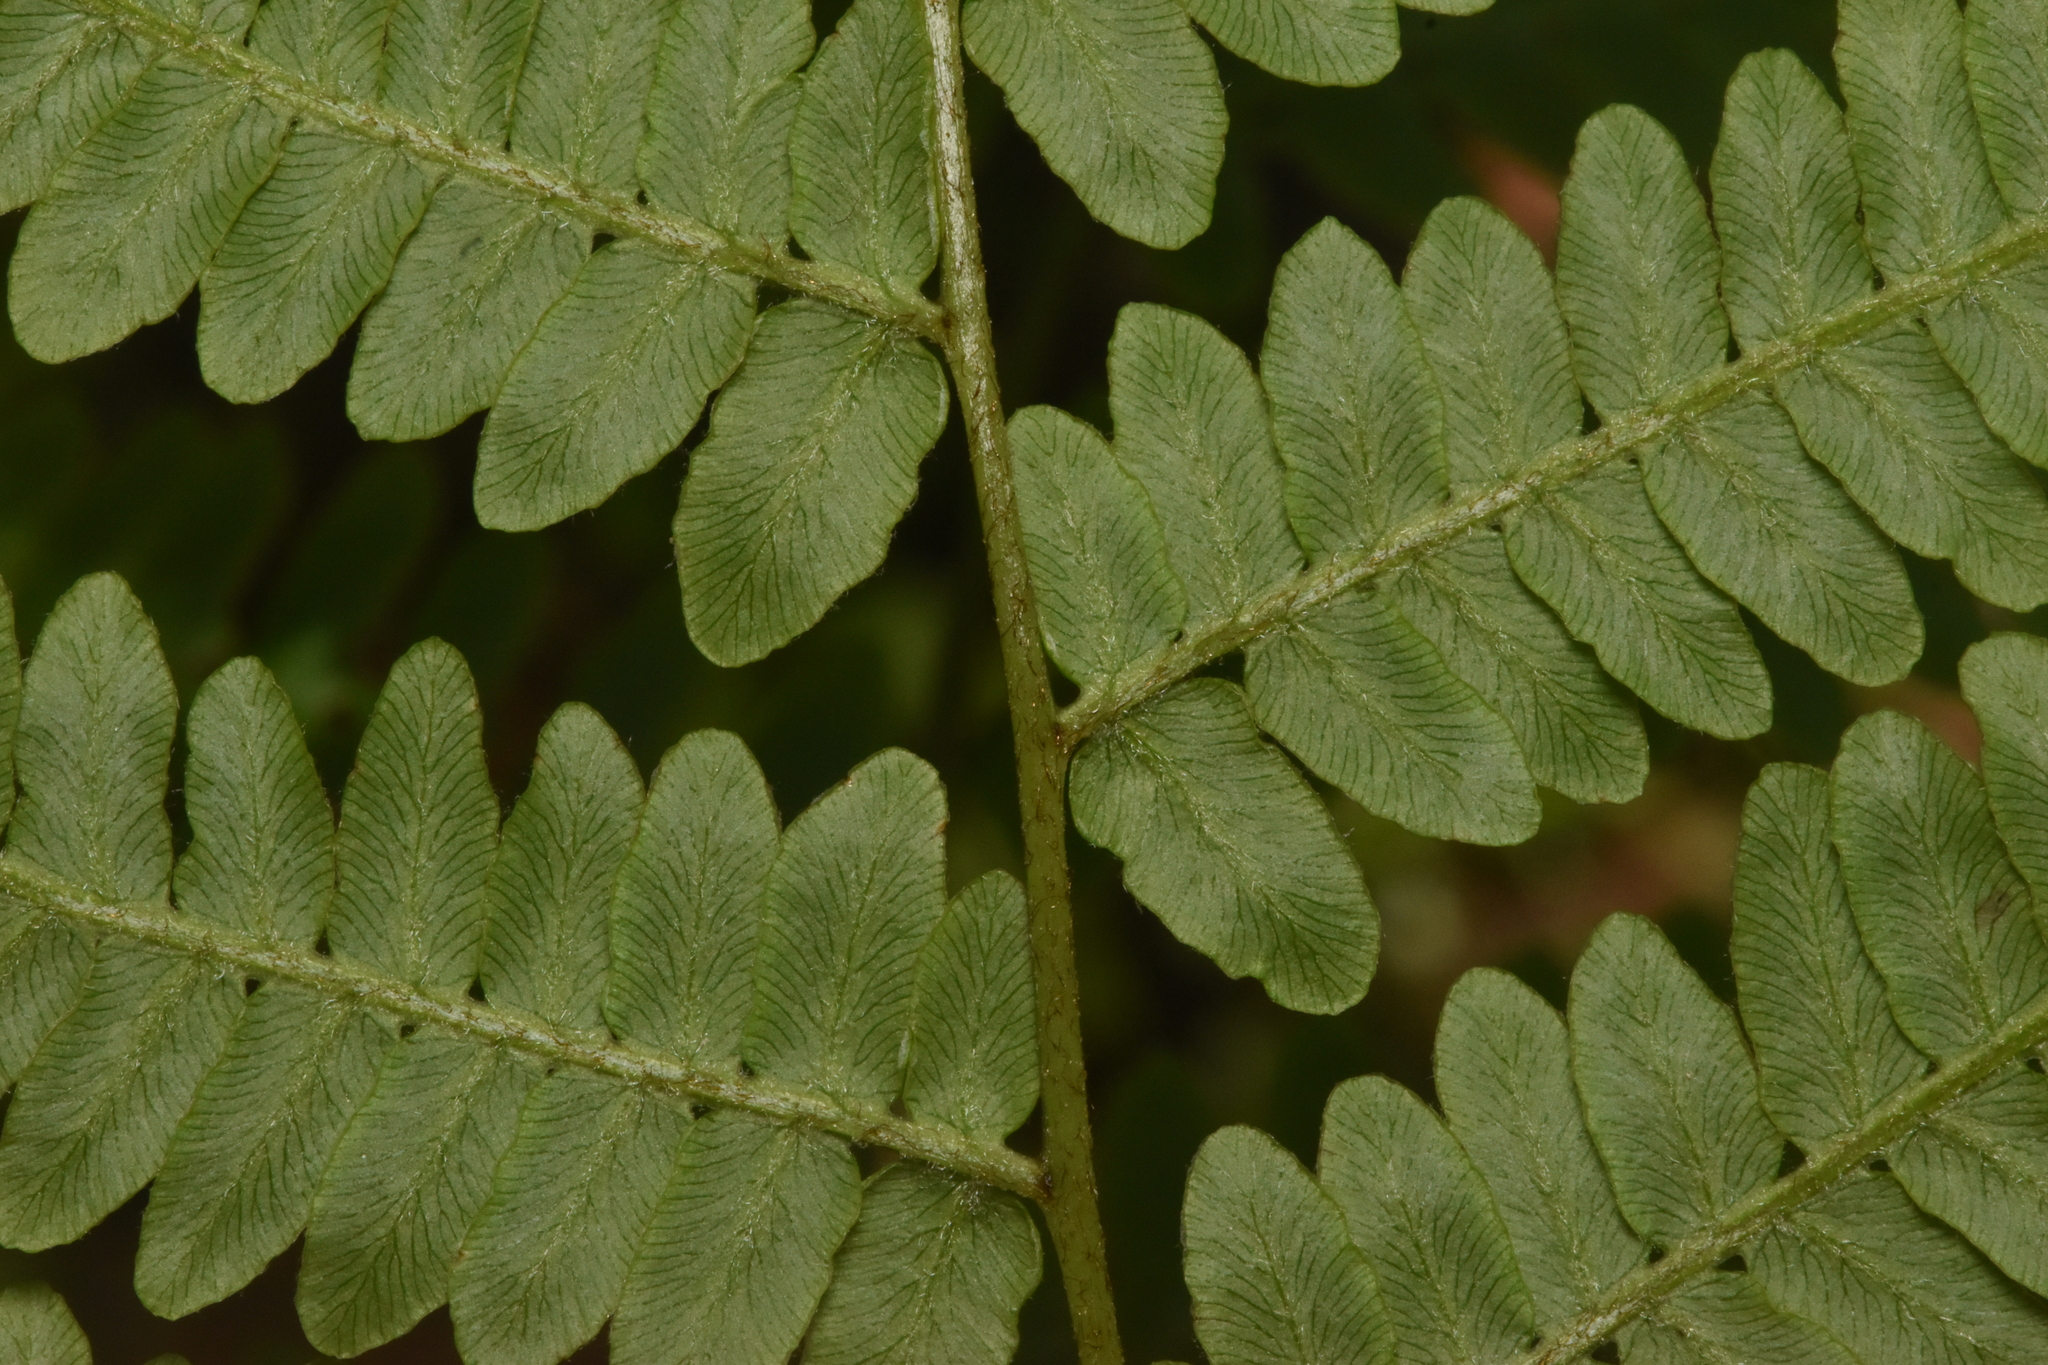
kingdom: Plantae
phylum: Tracheophyta
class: Polypodiopsida
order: Polypodiales
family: Dennstaedtiaceae
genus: Pteridium
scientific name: Pteridium aquilinum
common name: Bracken
